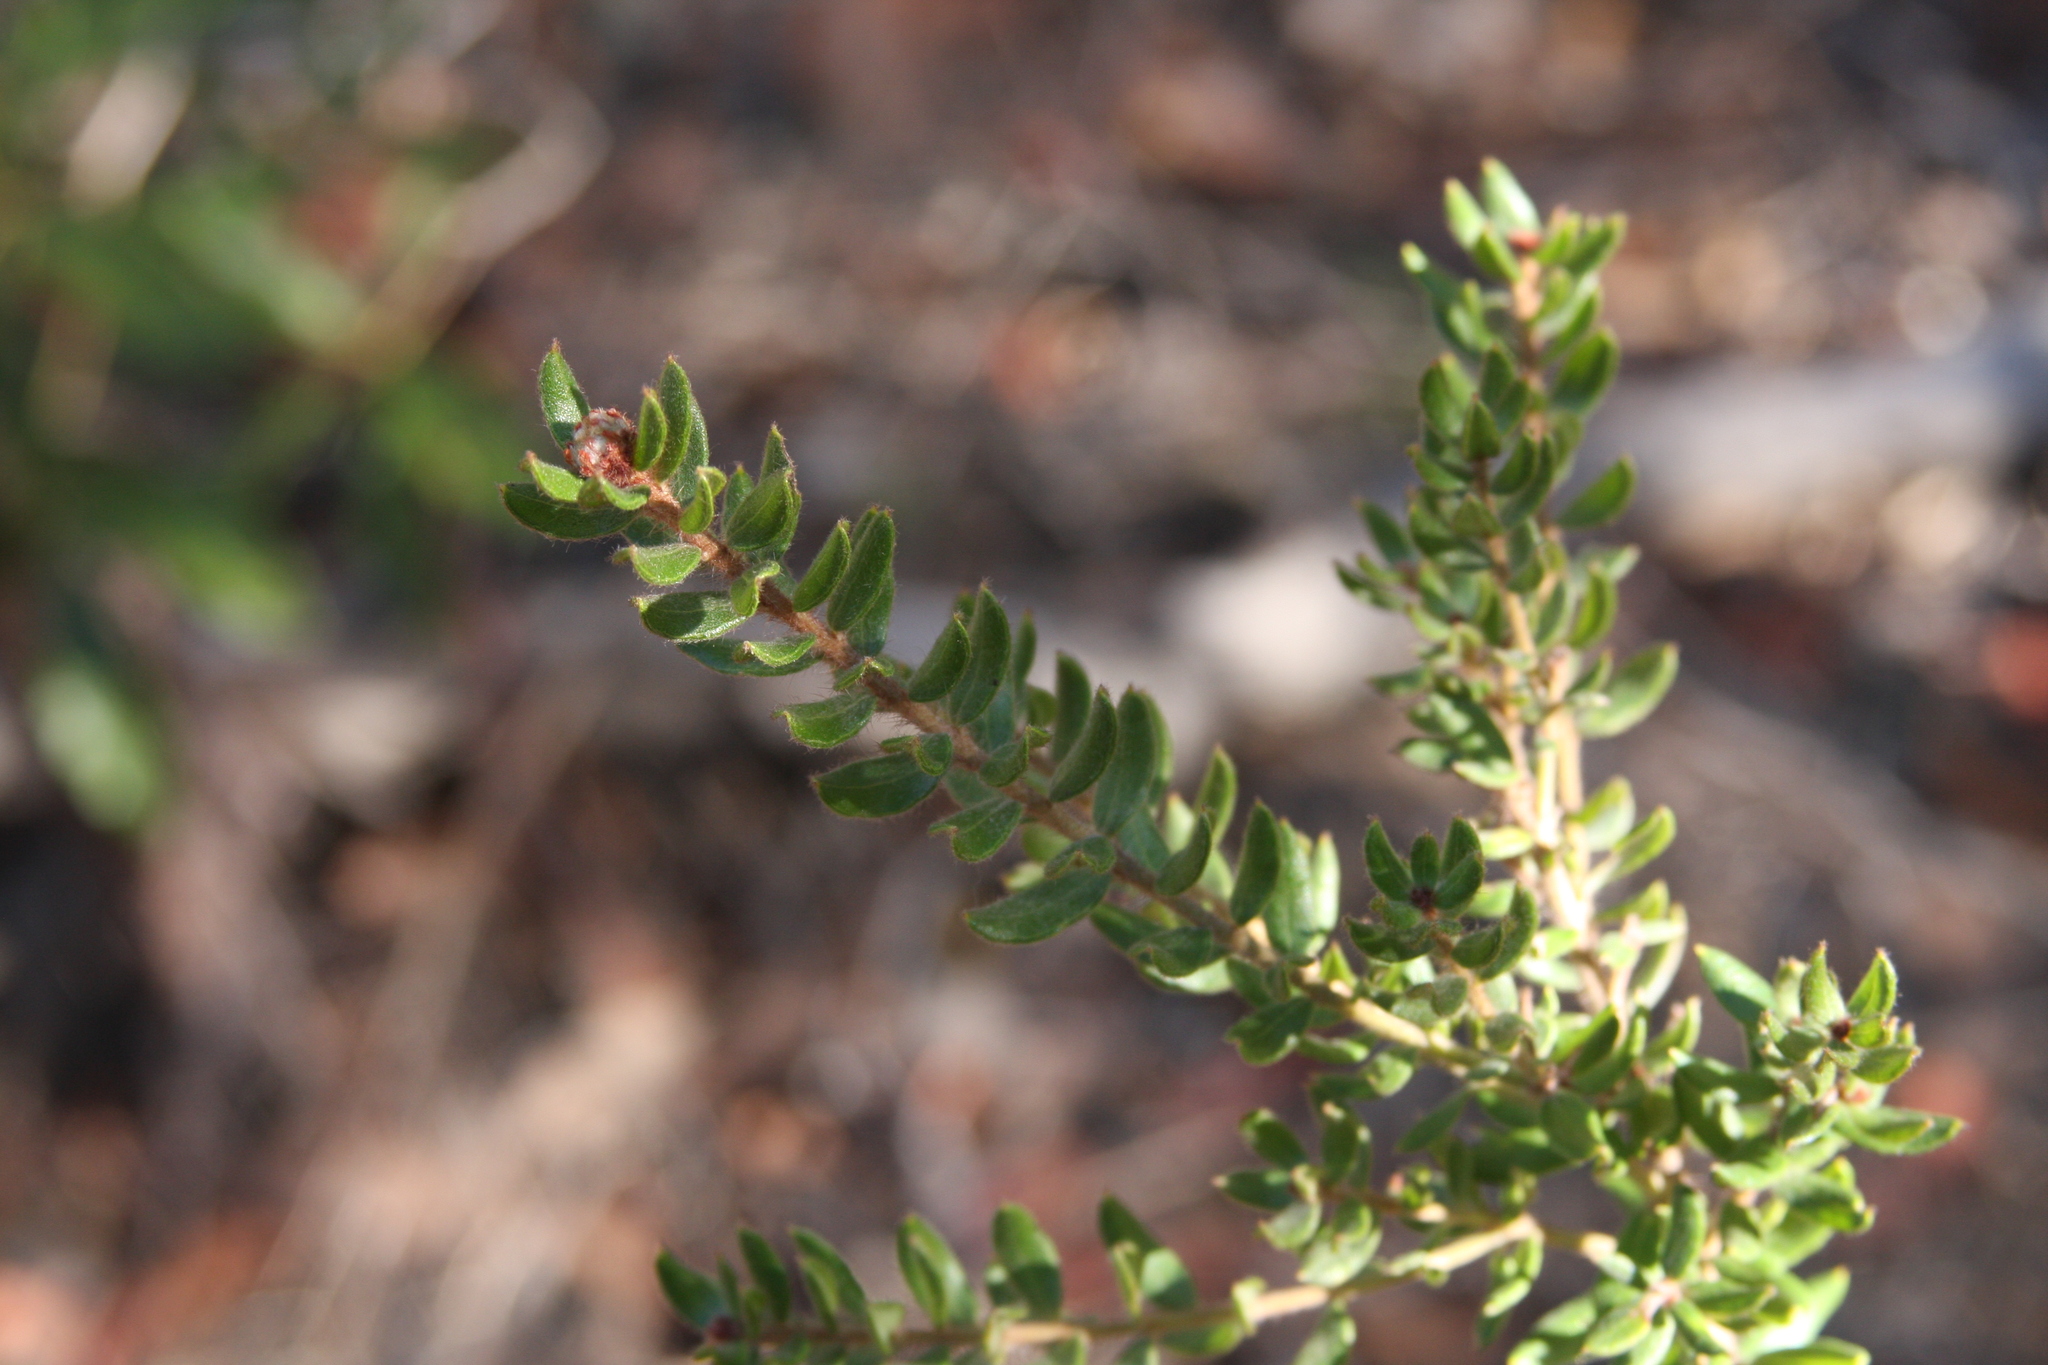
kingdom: Plantae
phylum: Tracheophyta
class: Magnoliopsida
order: Proteales
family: Proteaceae
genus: Grevillea
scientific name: Grevillea buxifolia
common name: Grey spiderflower
